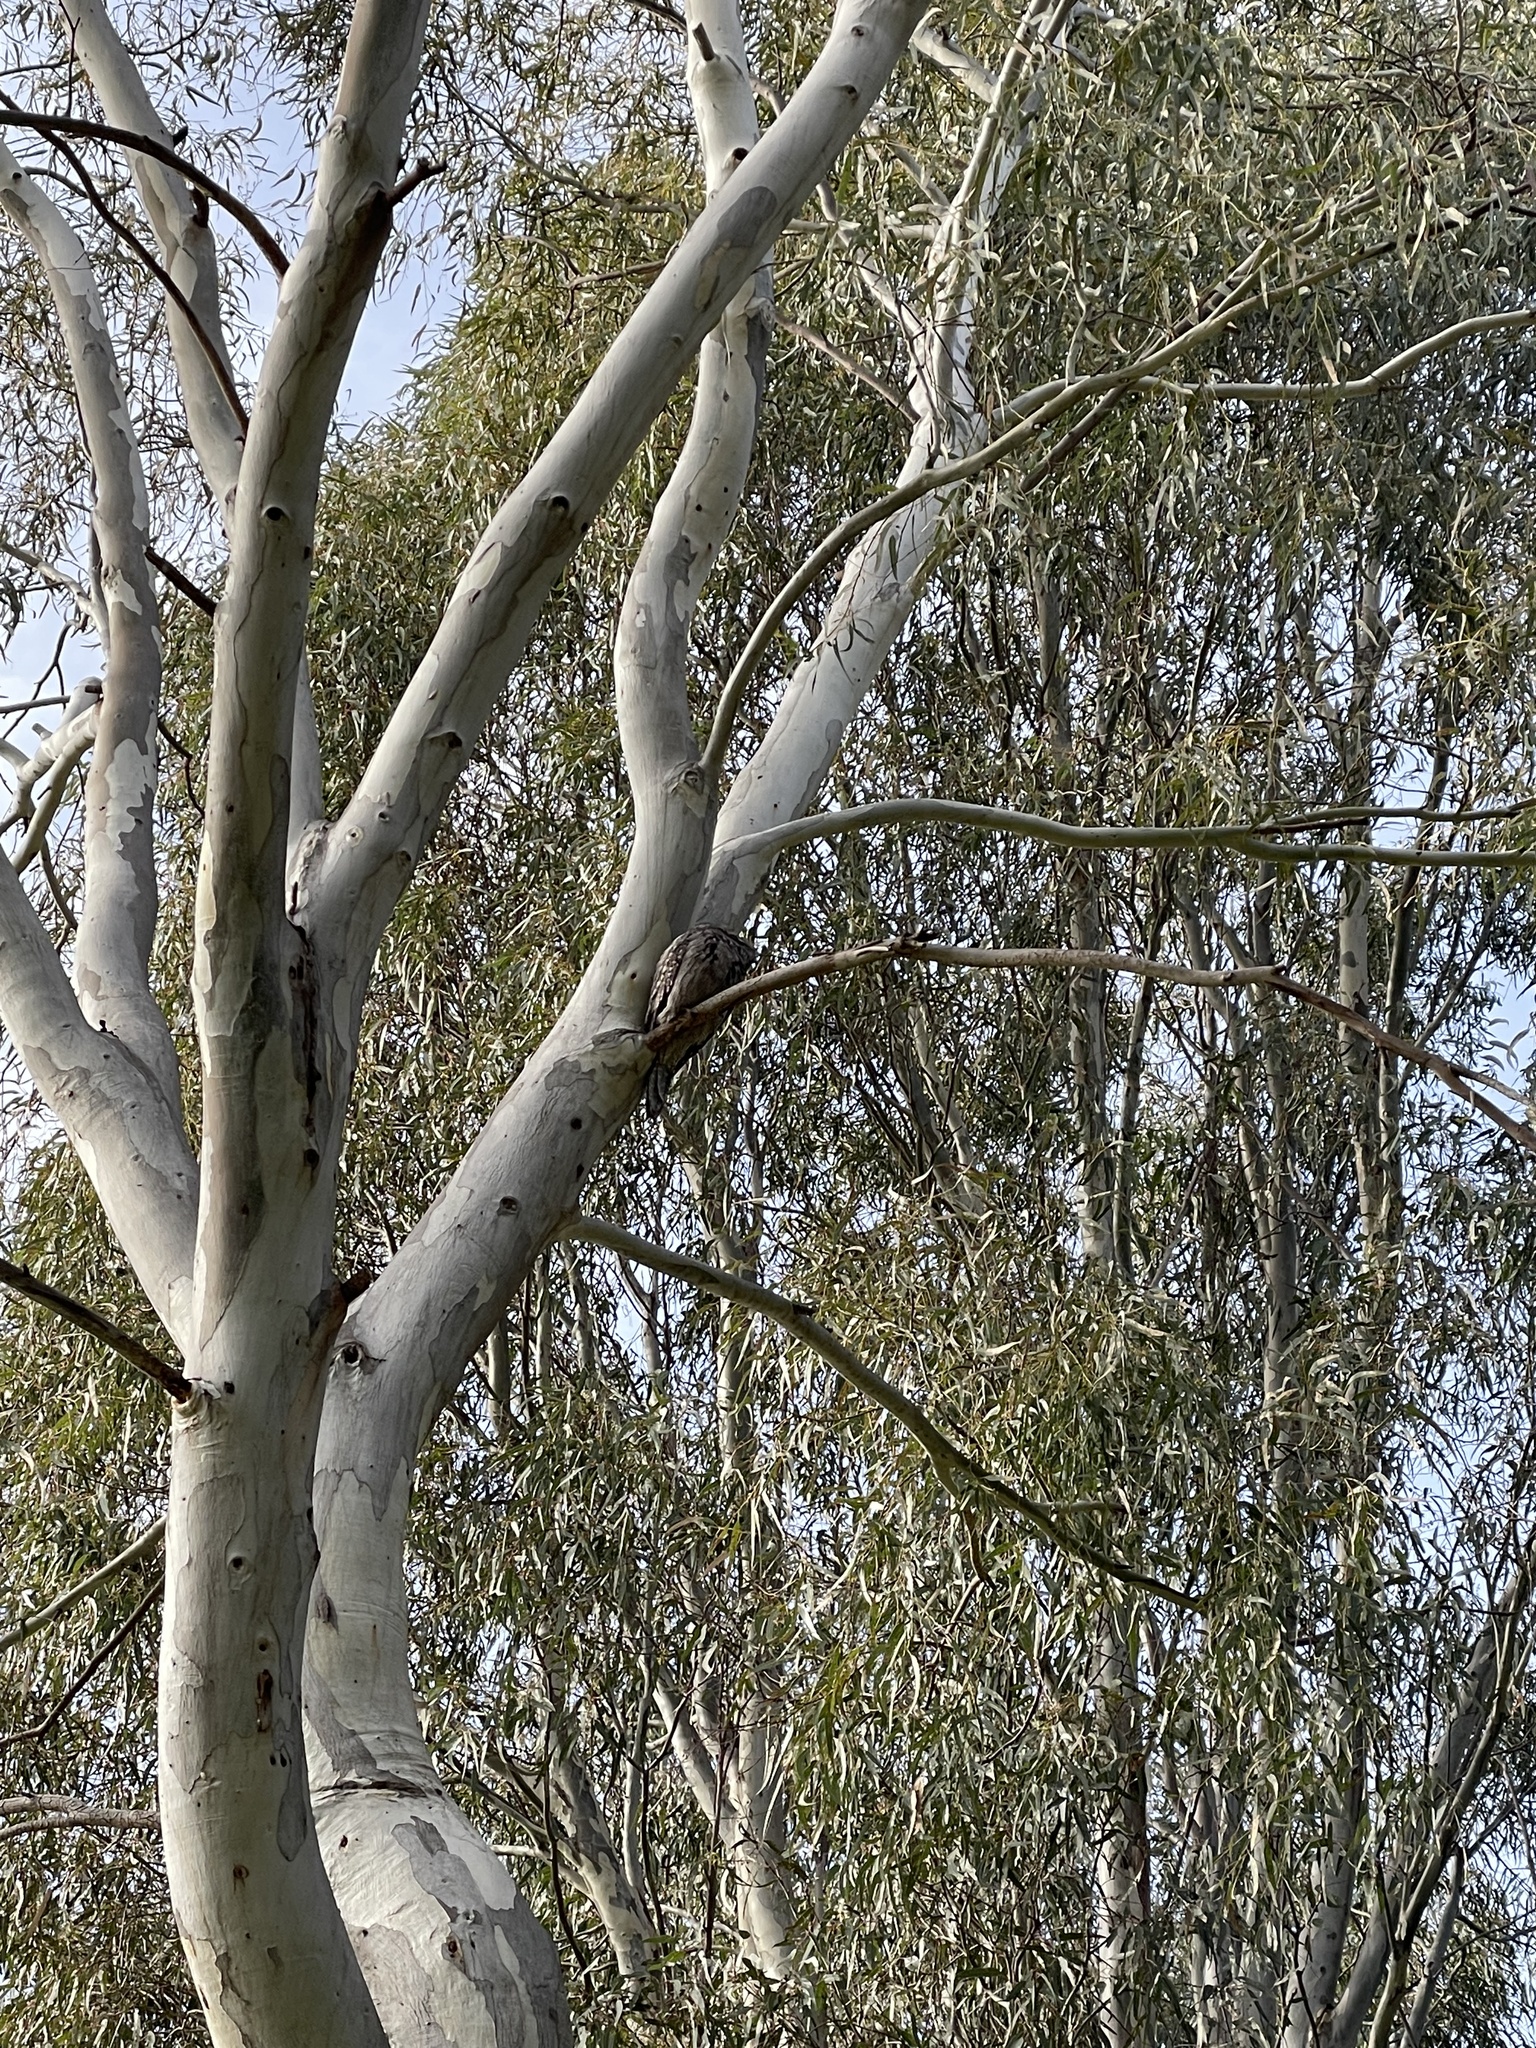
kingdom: Animalia
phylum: Chordata
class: Aves
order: Caprimulgiformes
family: Podargidae
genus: Podargus
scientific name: Podargus strigoides
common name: Tawny frogmouth
